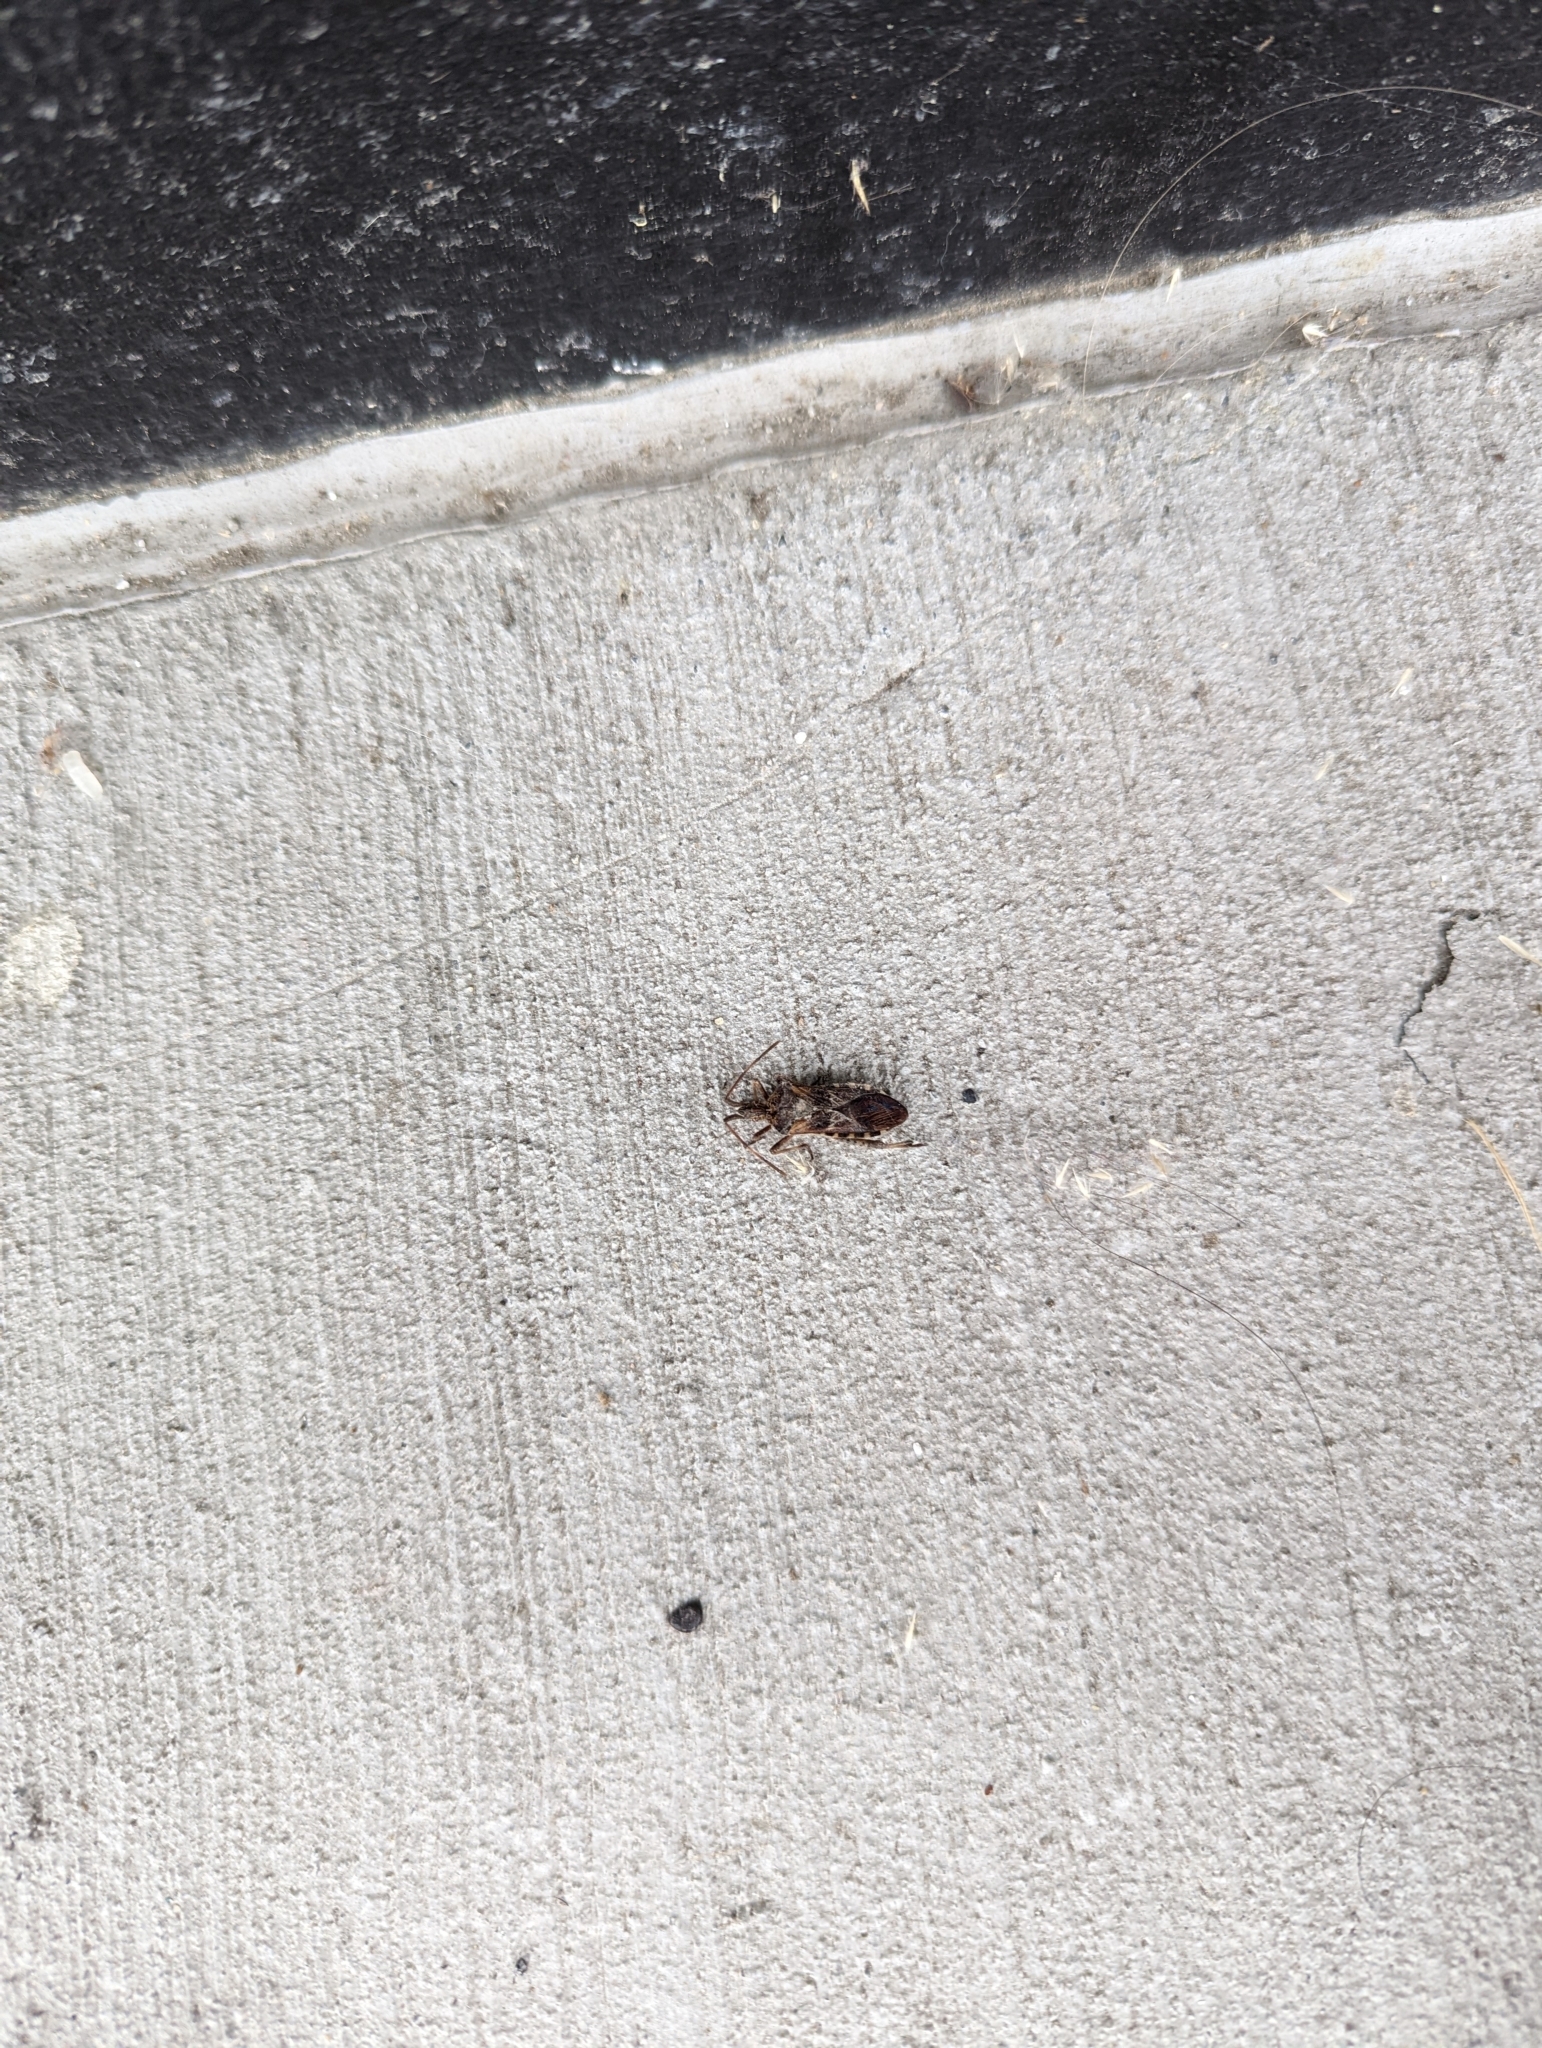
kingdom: Animalia
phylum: Arthropoda
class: Insecta
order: Hemiptera
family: Coreidae
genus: Leptoglossus
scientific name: Leptoglossus occidentalis
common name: Western conifer-seed bug
